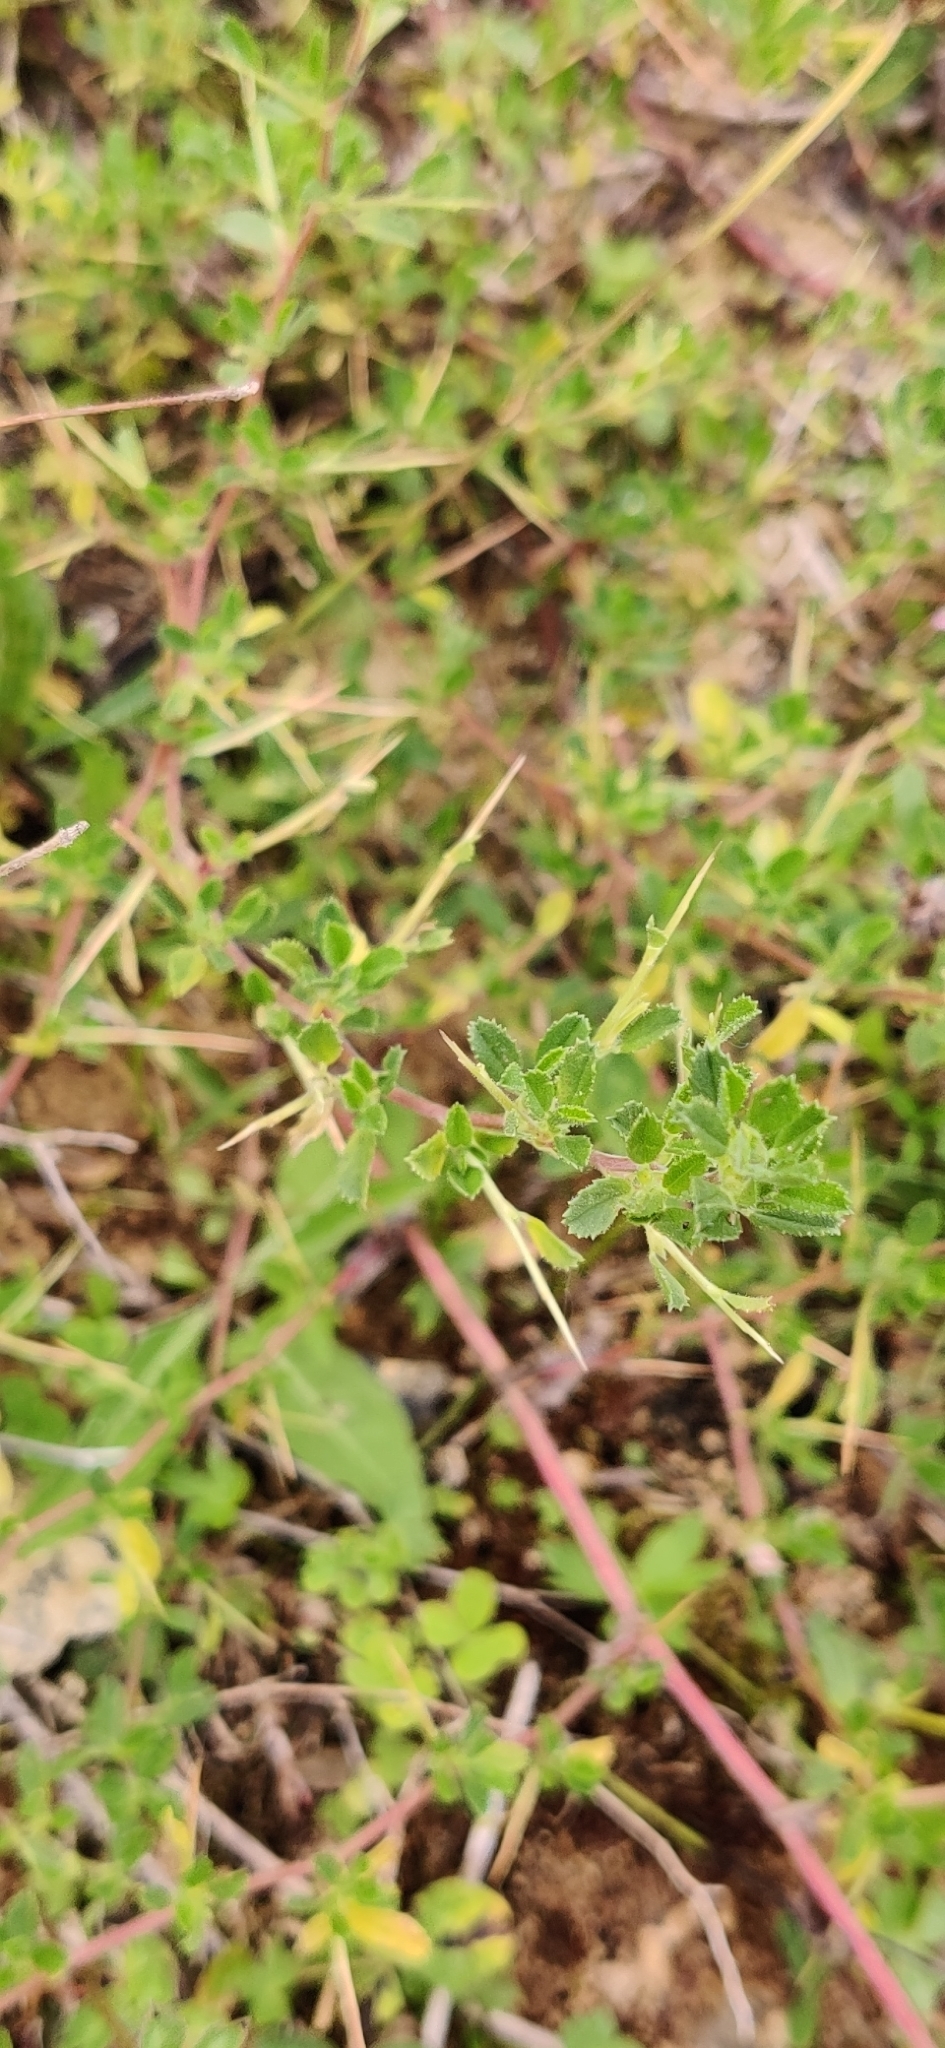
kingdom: Plantae
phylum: Tracheophyta
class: Magnoliopsida
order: Fabales
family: Fabaceae
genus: Ononis
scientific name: Ononis spinosa
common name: Spiny restharrow
